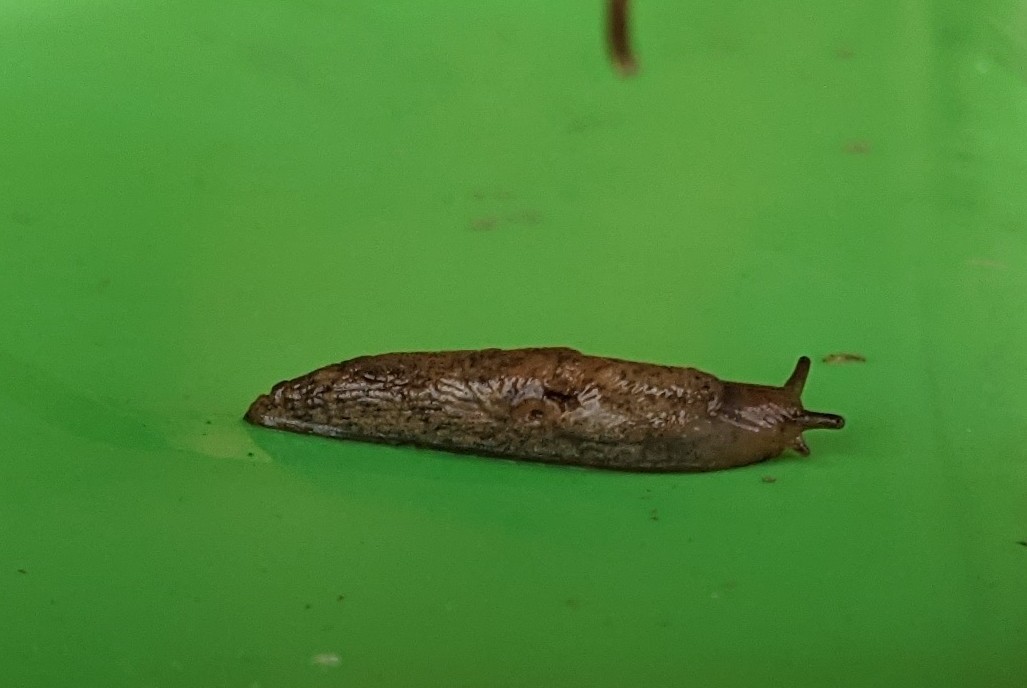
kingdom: Animalia
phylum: Mollusca
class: Gastropoda
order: Stylommatophora
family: Agriolimacidae
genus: Deroceras
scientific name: Deroceras reticulatum
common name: Gray field slug
